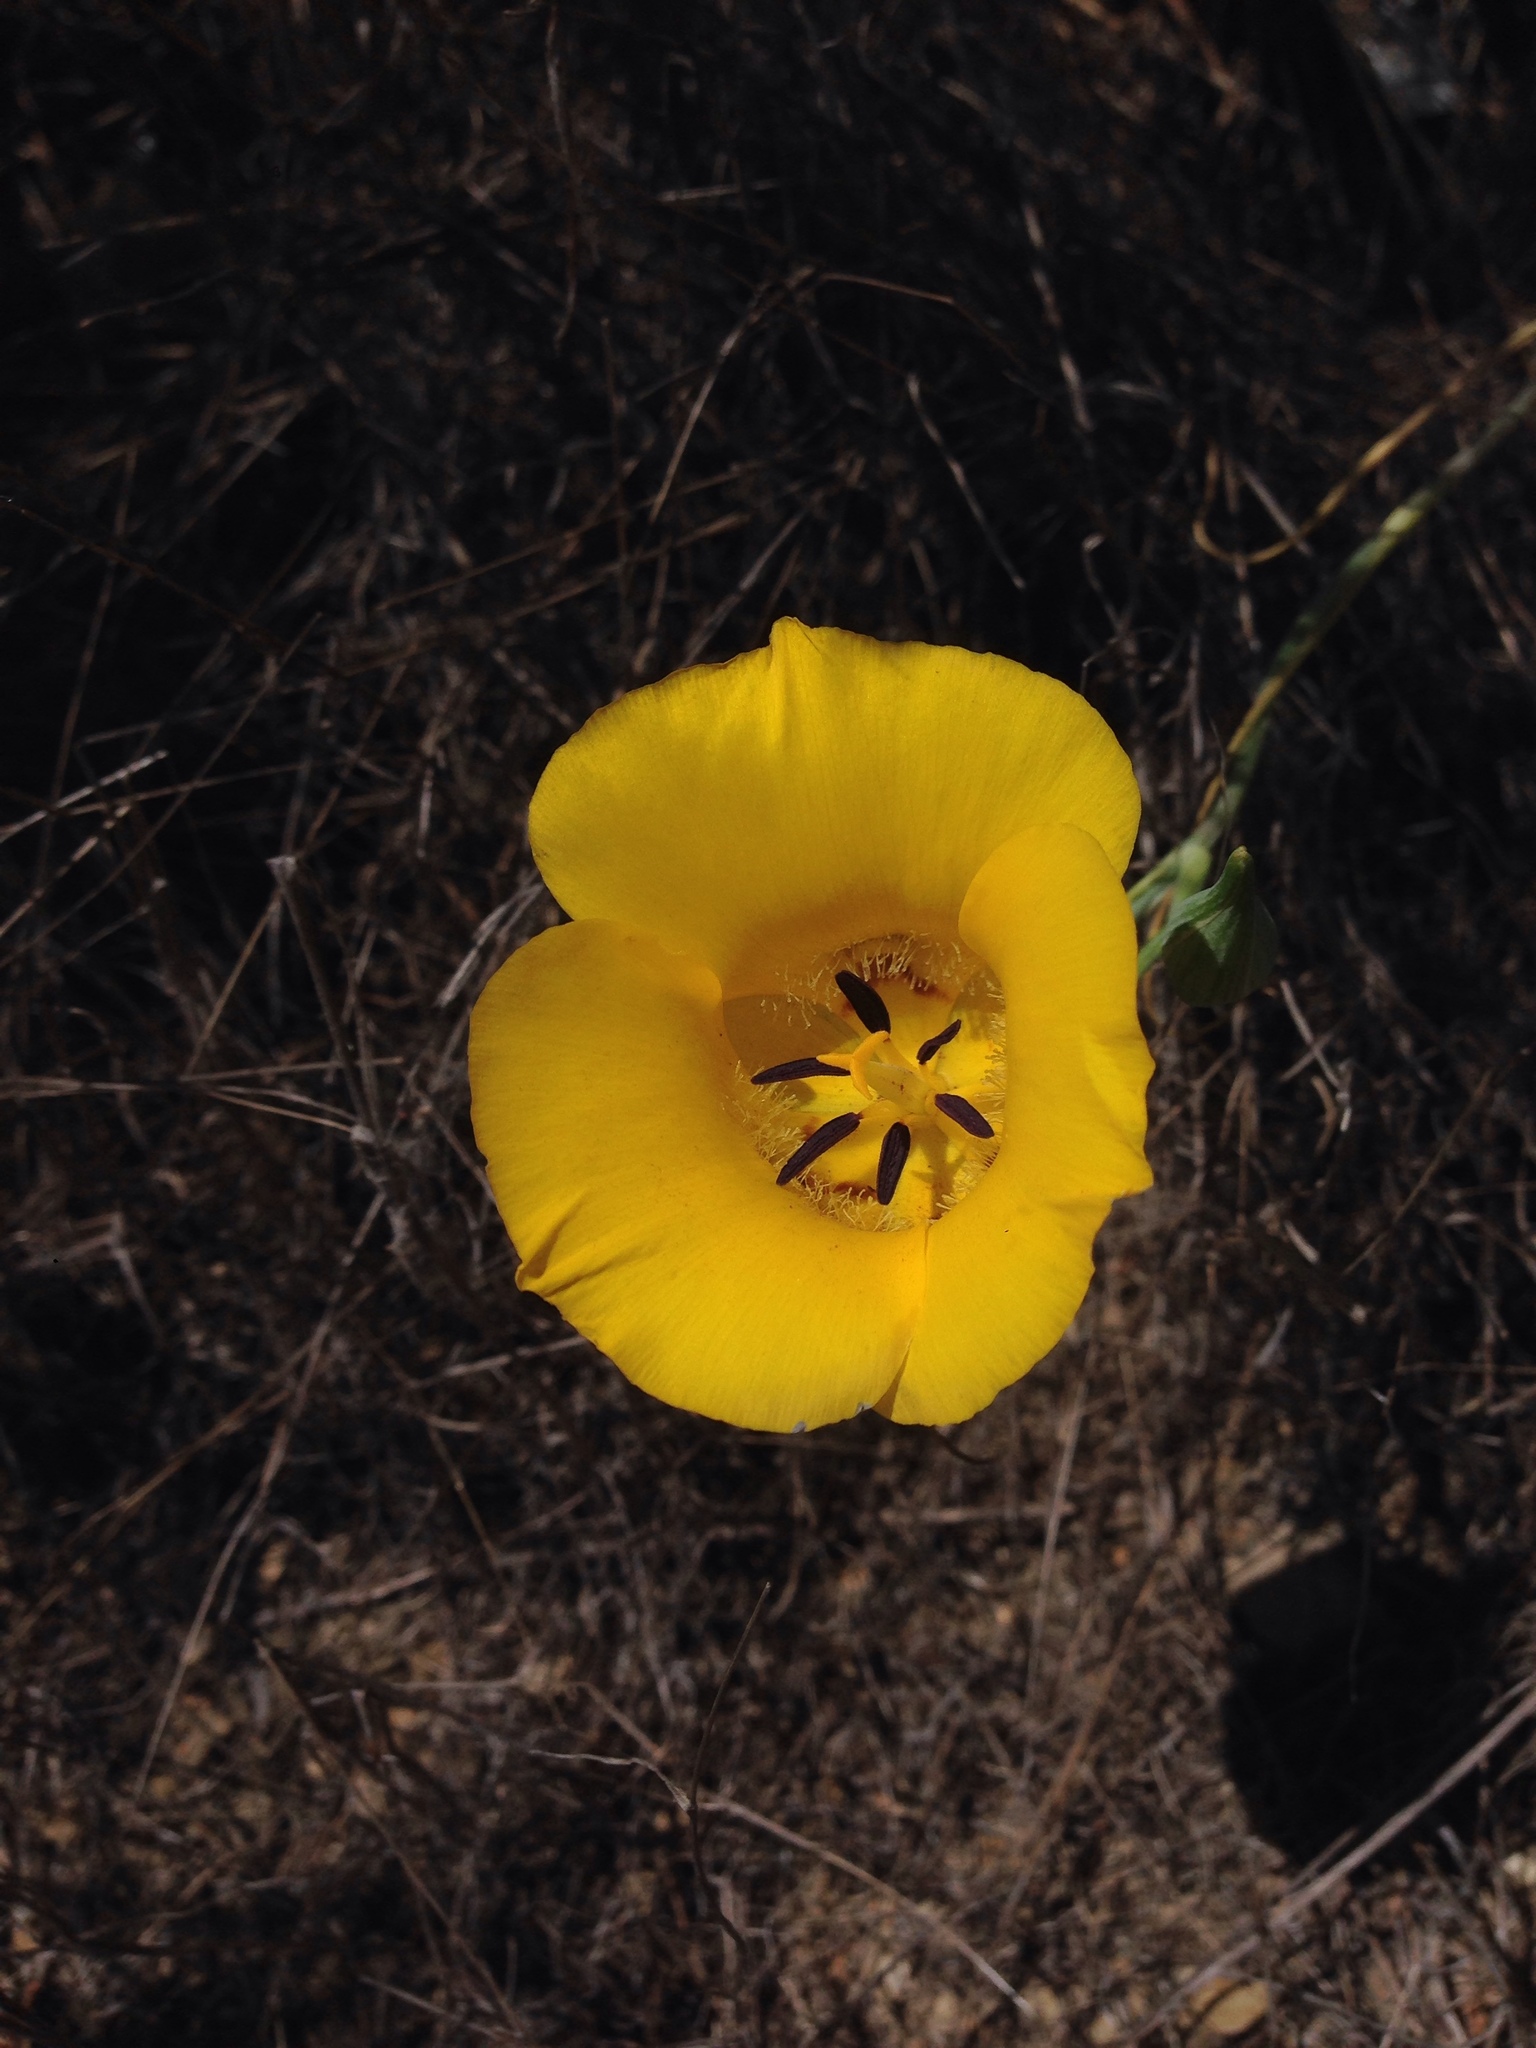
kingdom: Plantae
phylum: Tracheophyta
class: Liliopsida
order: Liliales
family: Liliaceae
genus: Calochortus
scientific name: Calochortus clavatus
